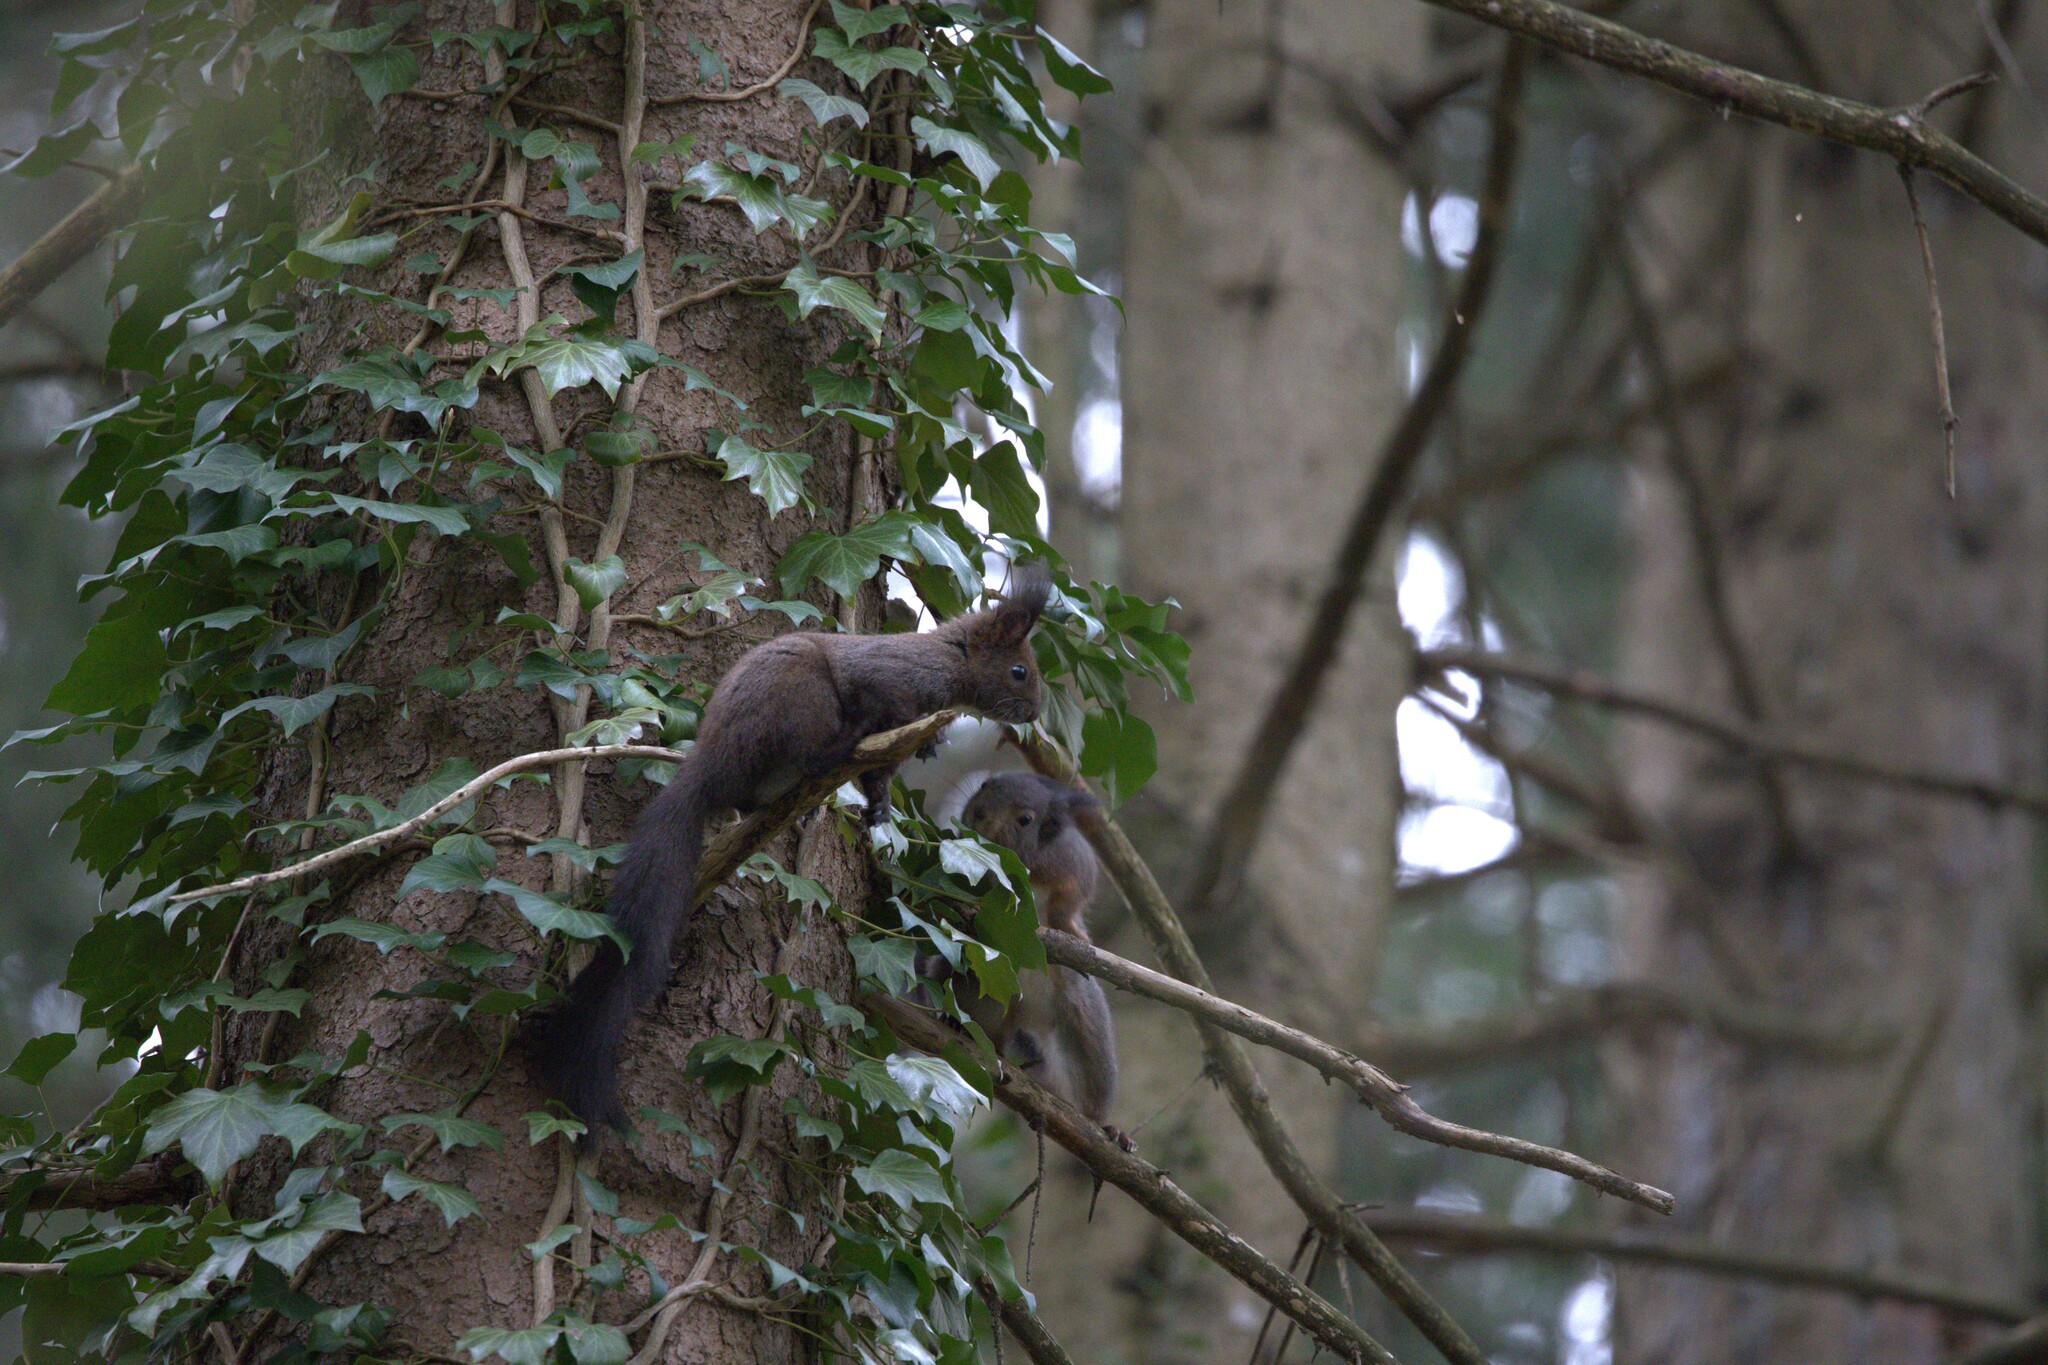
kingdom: Animalia
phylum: Chordata
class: Mammalia
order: Rodentia
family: Sciuridae
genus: Sciurus
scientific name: Sciurus vulgaris
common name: Eurasian red squirrel
